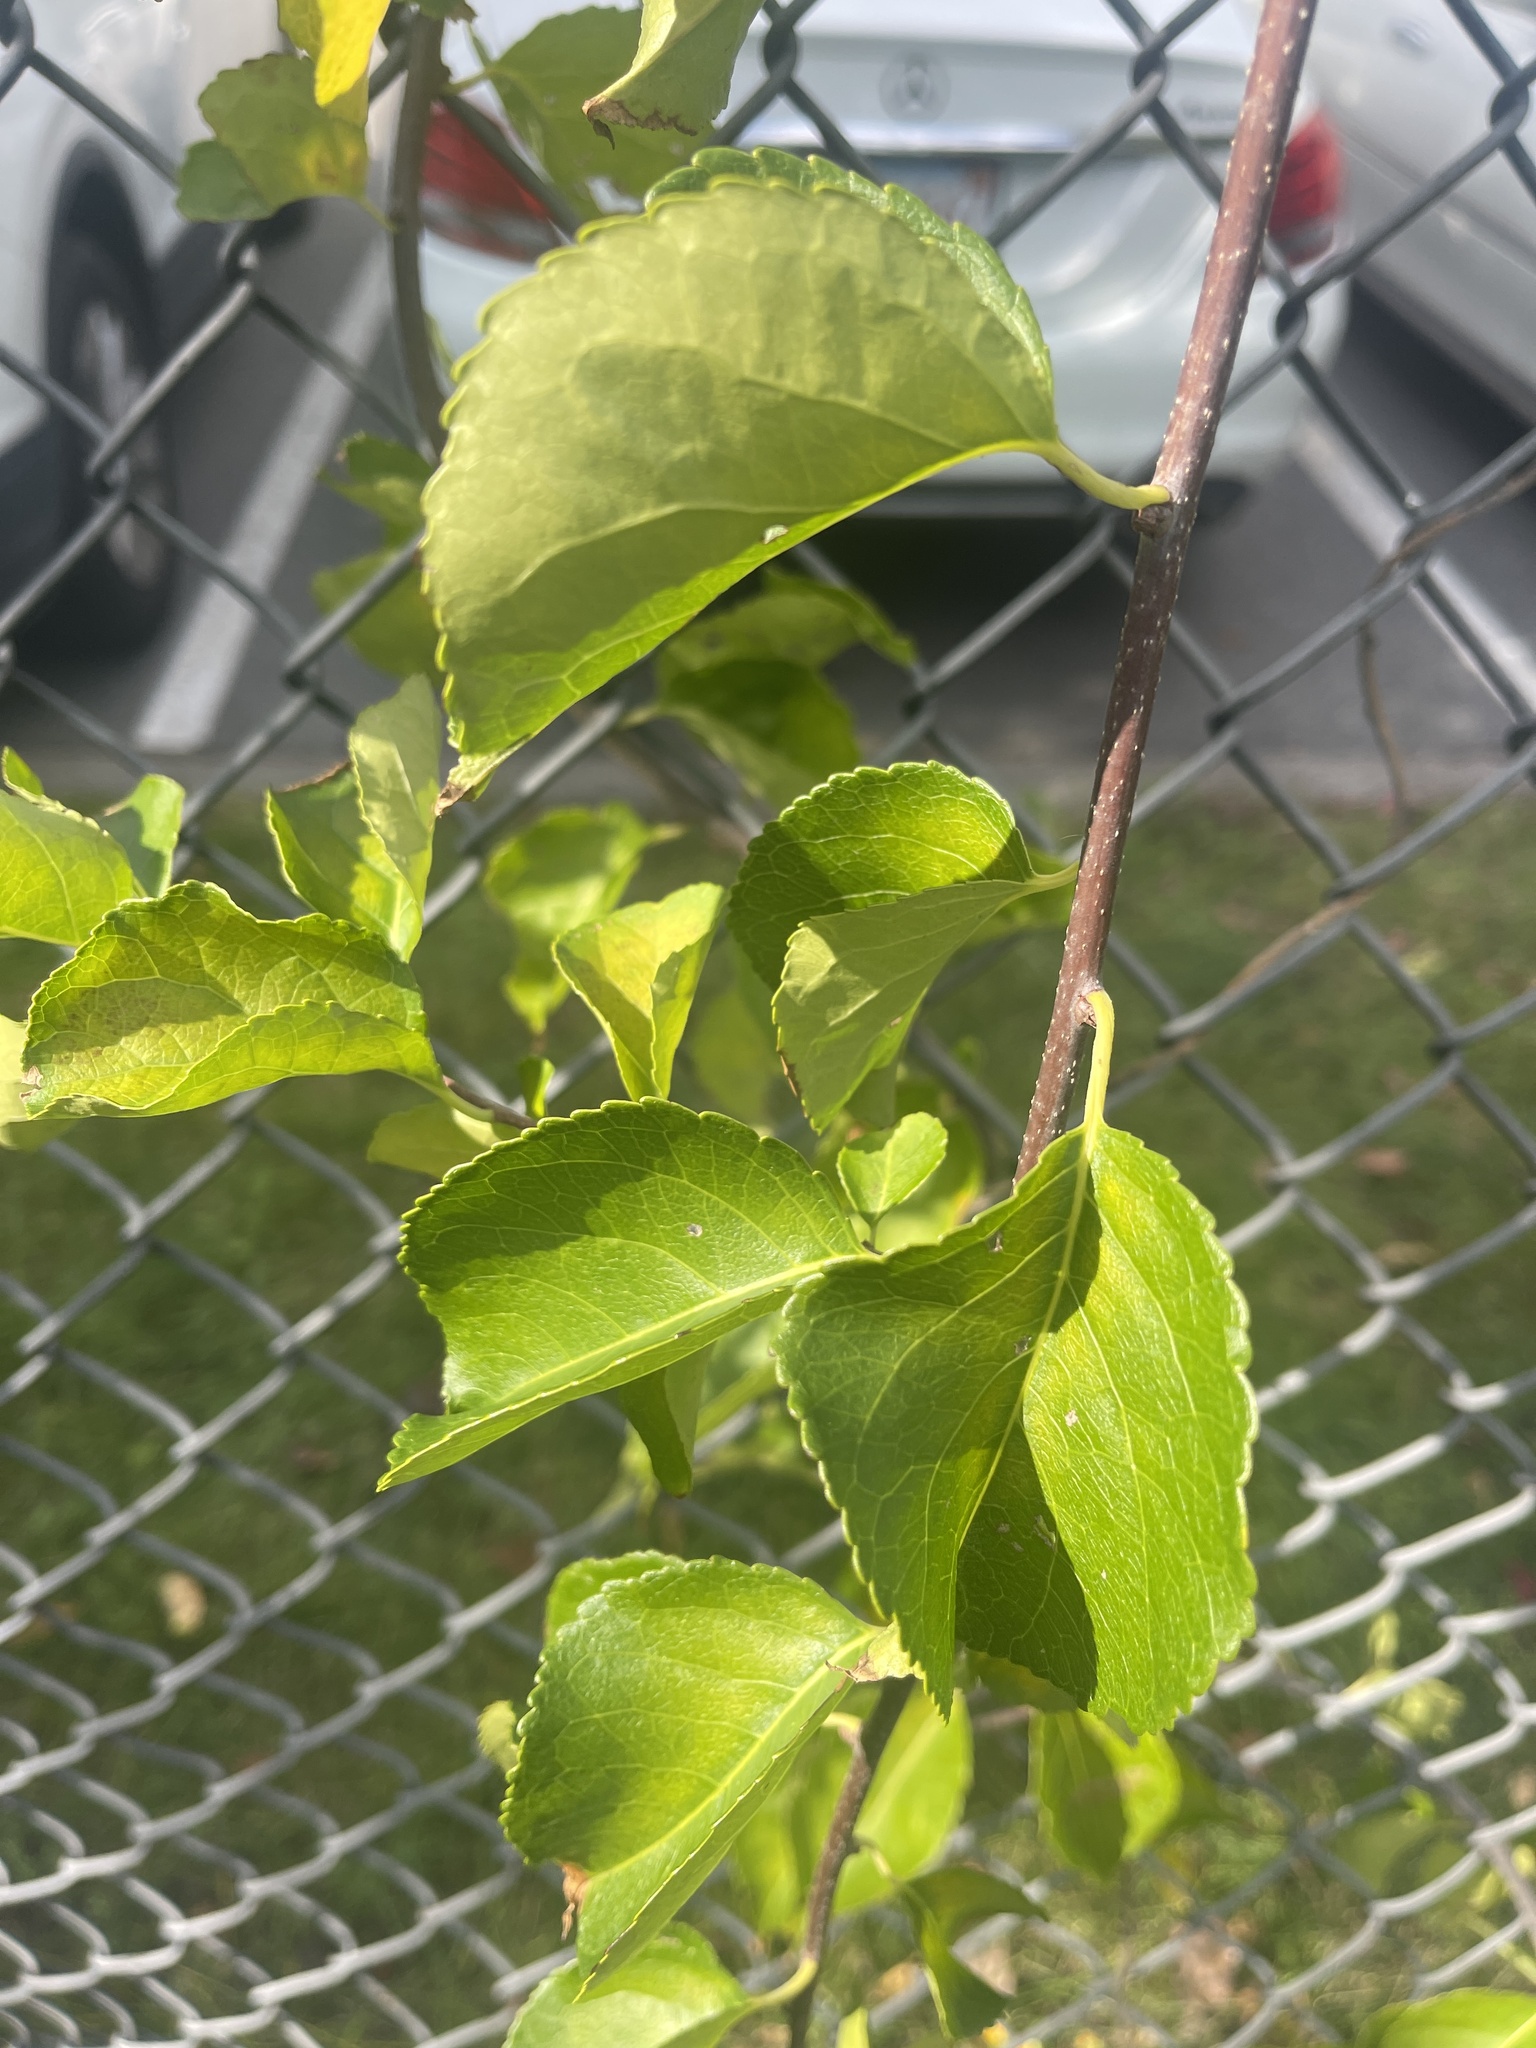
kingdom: Plantae
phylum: Tracheophyta
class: Magnoliopsida
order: Celastrales
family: Celastraceae
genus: Celastrus
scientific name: Celastrus orbiculatus
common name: Oriental bittersweet
